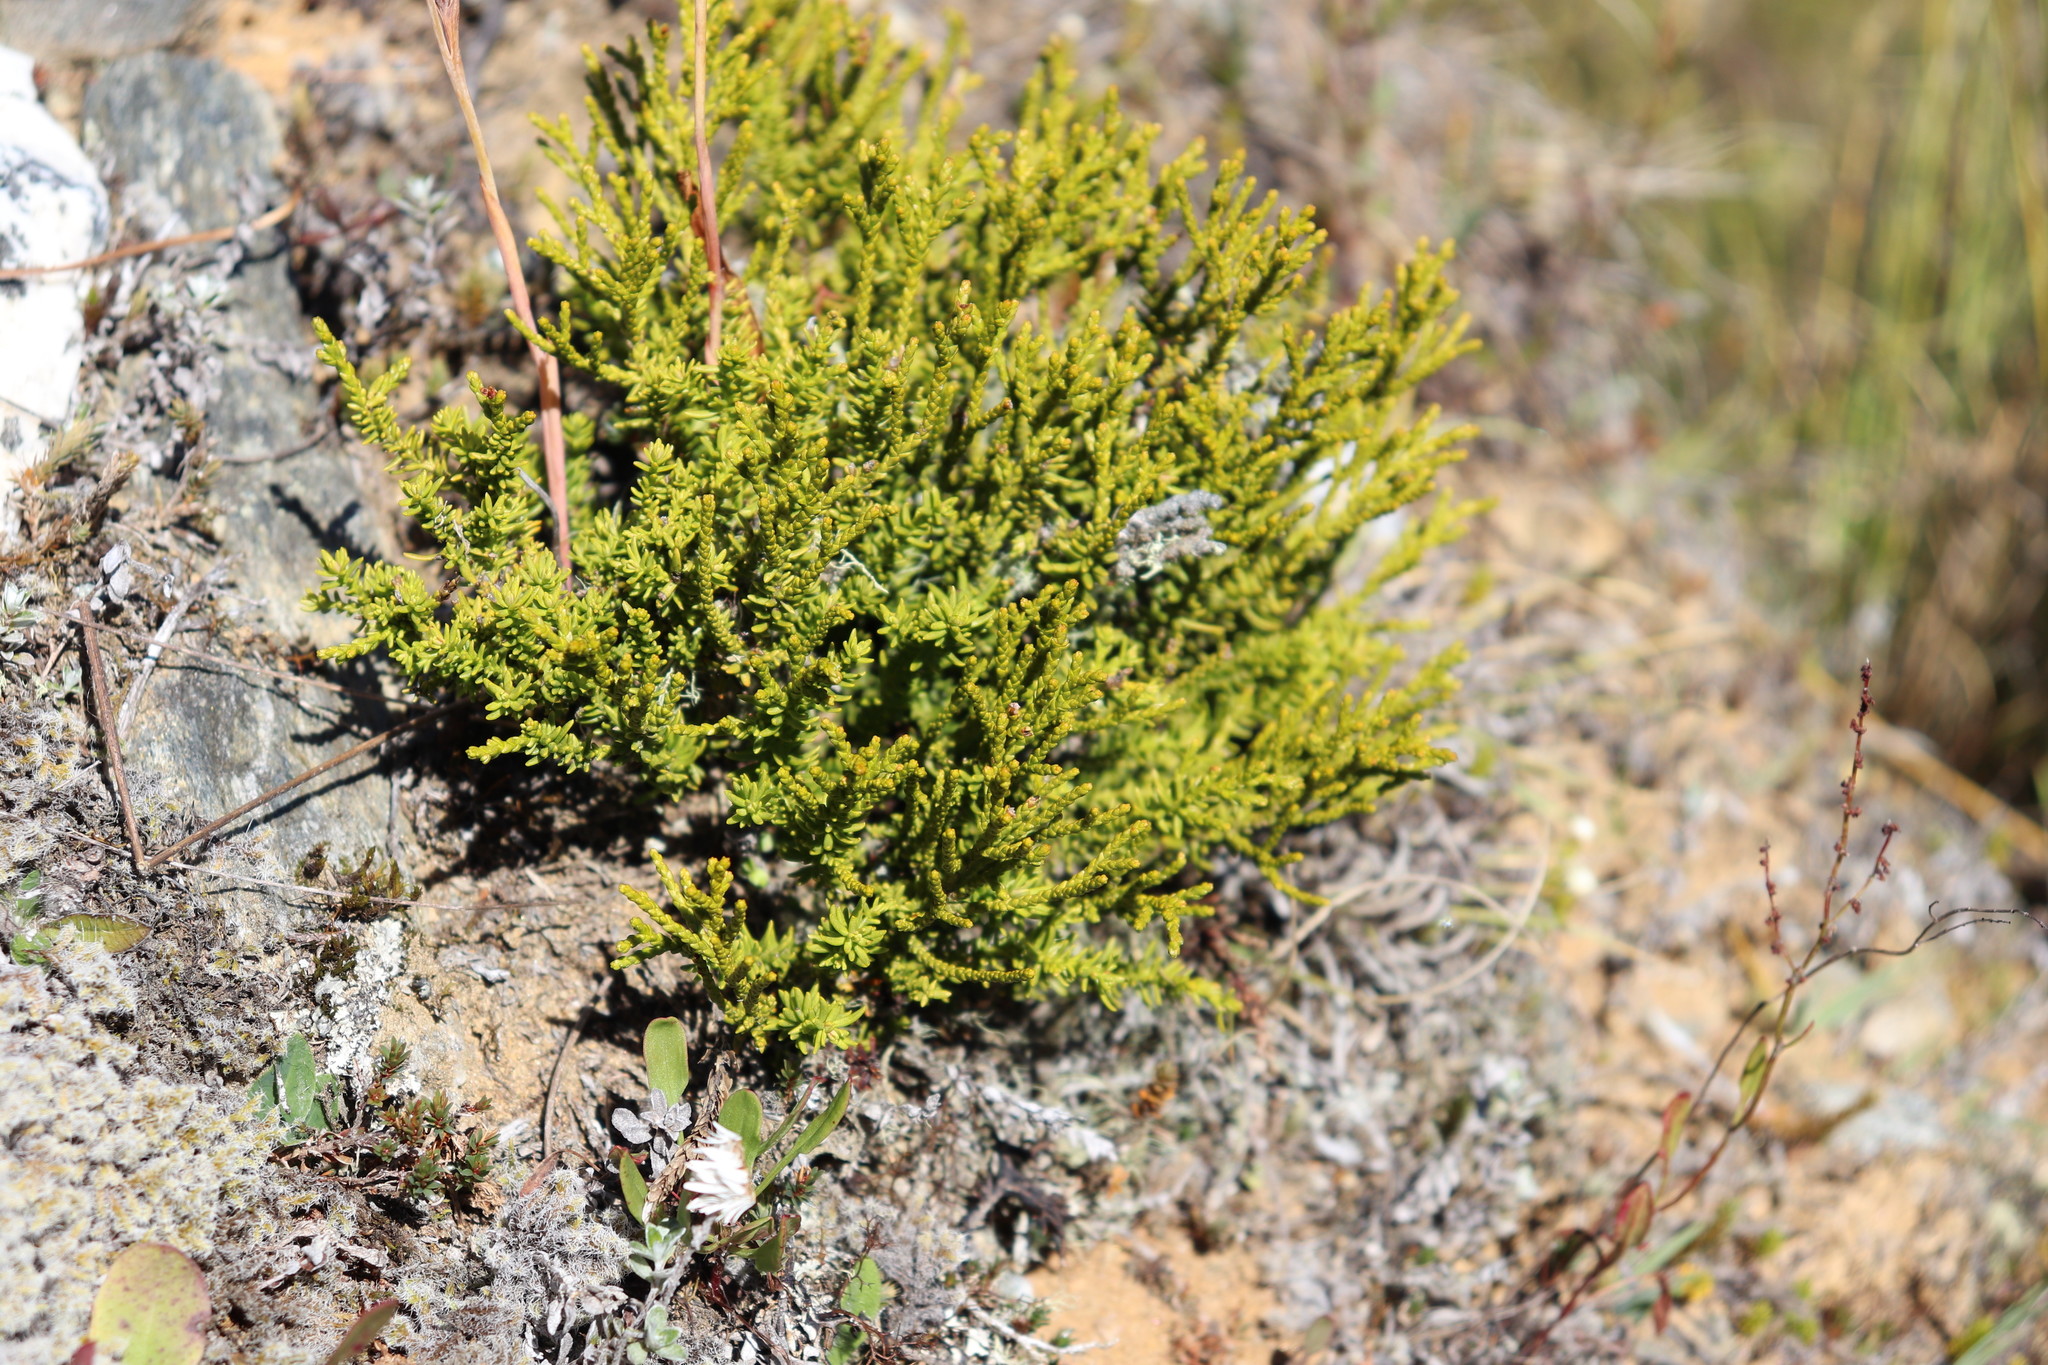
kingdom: Plantae
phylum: Tracheophyta
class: Pinopsida
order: Pinales
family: Podocarpaceae
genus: Halocarpus
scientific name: Halocarpus bidwillii
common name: Bog pine
